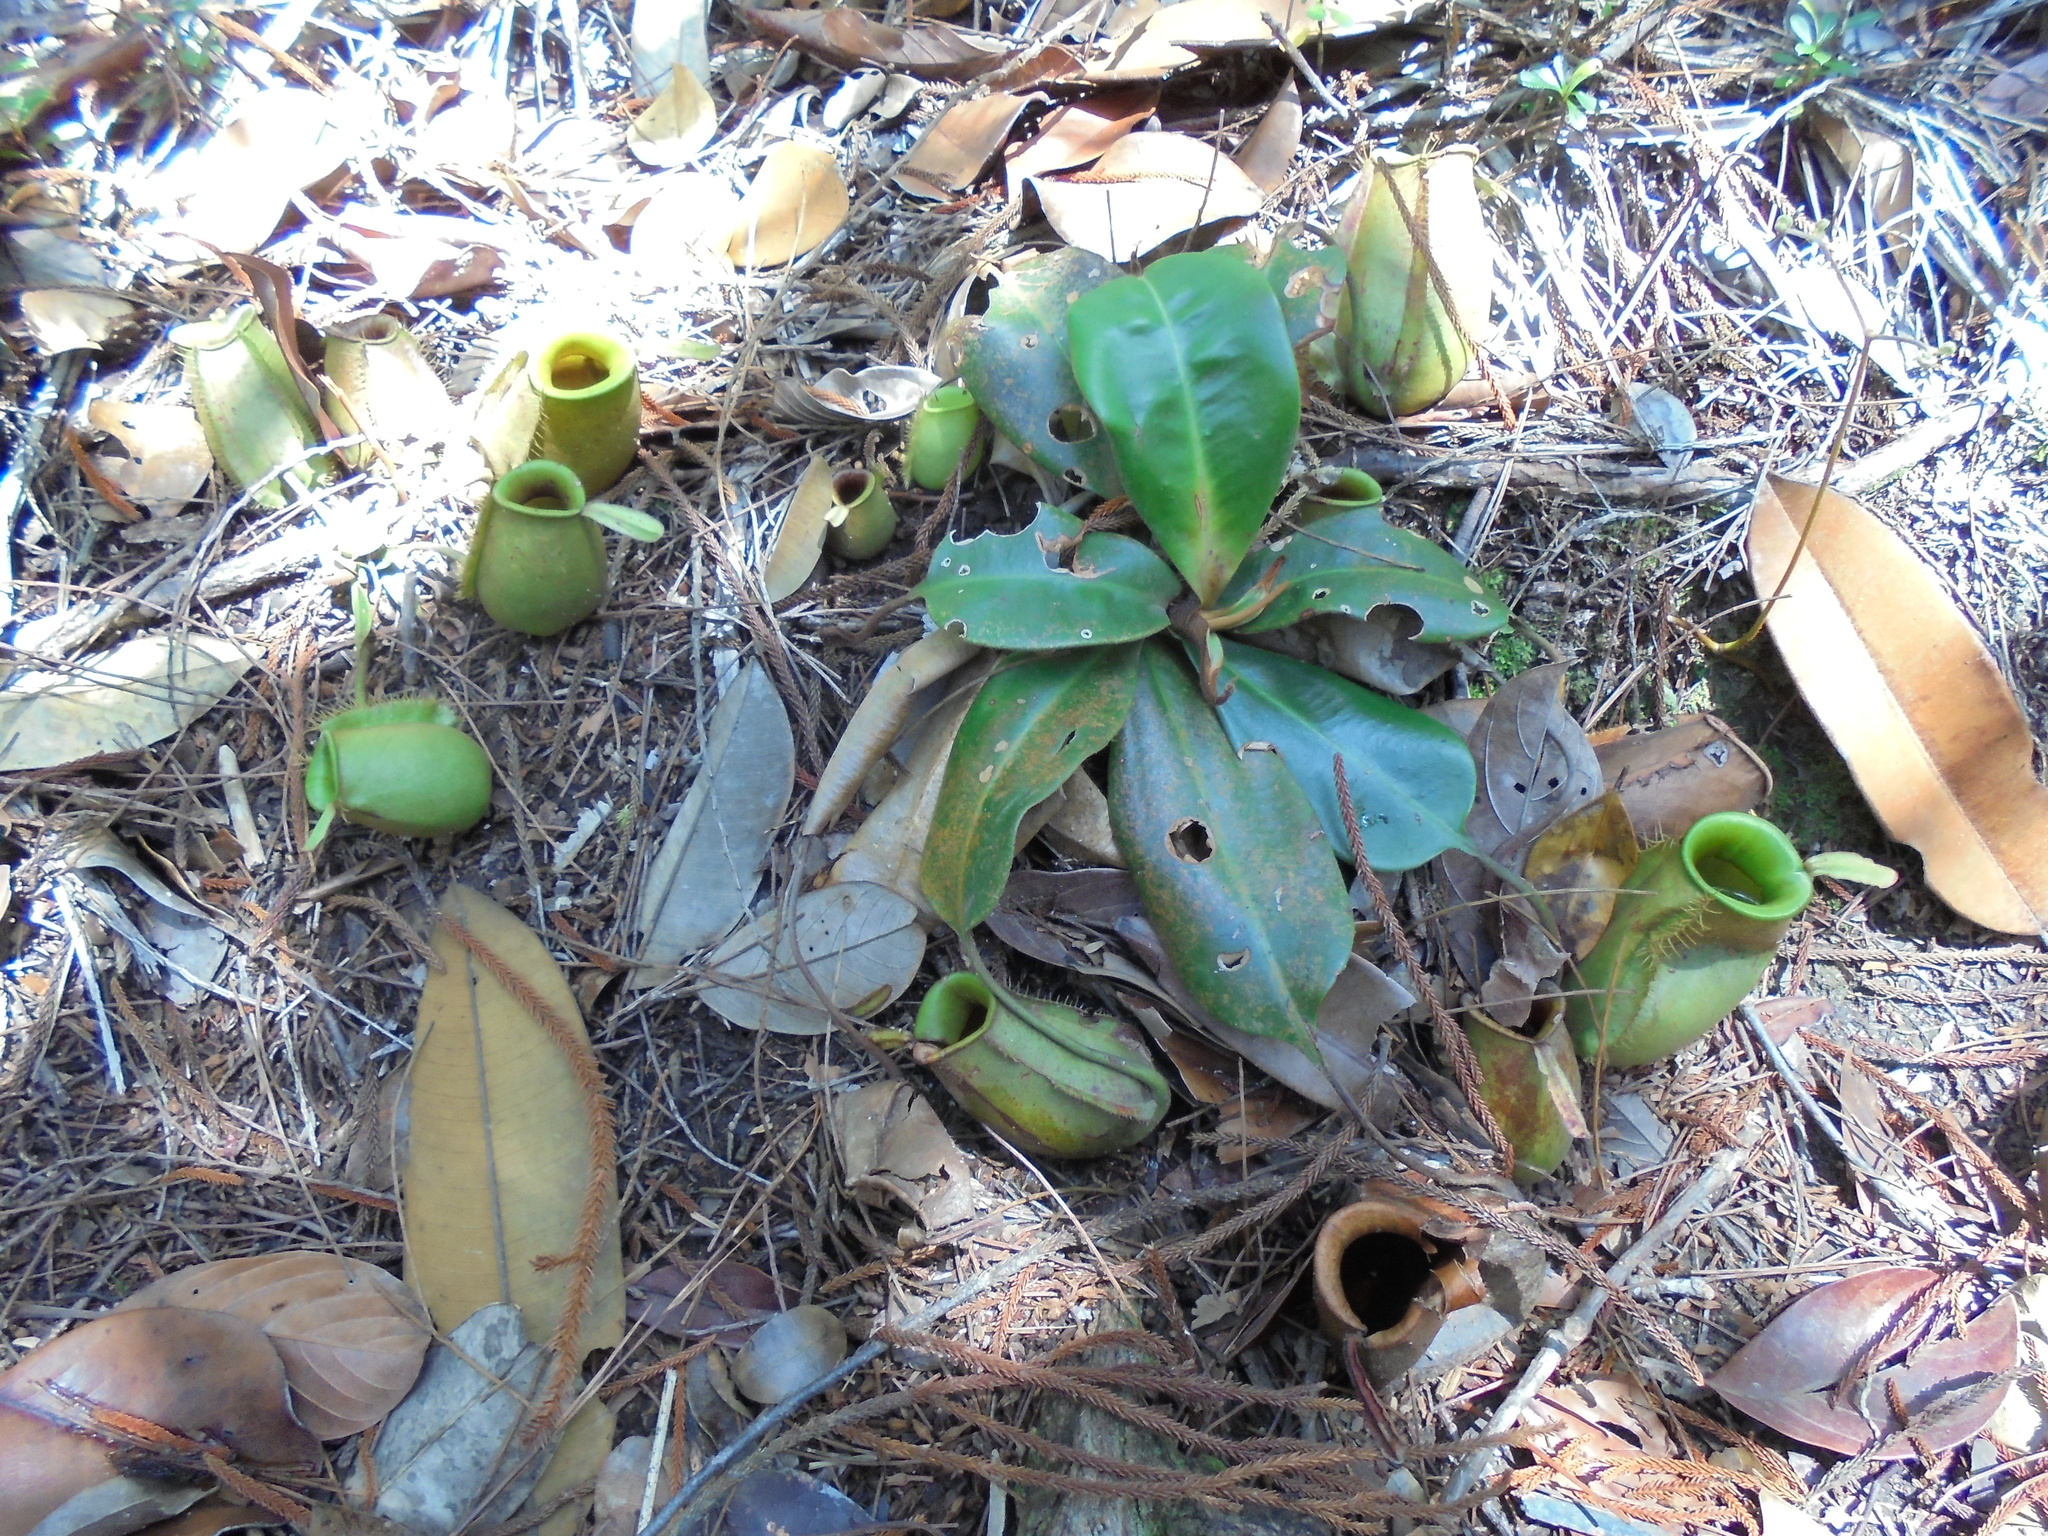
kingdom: Plantae
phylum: Tracheophyta
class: Magnoliopsida
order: Caryophyllales
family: Nepenthaceae
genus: Nepenthes
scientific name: Nepenthes ampullaria
